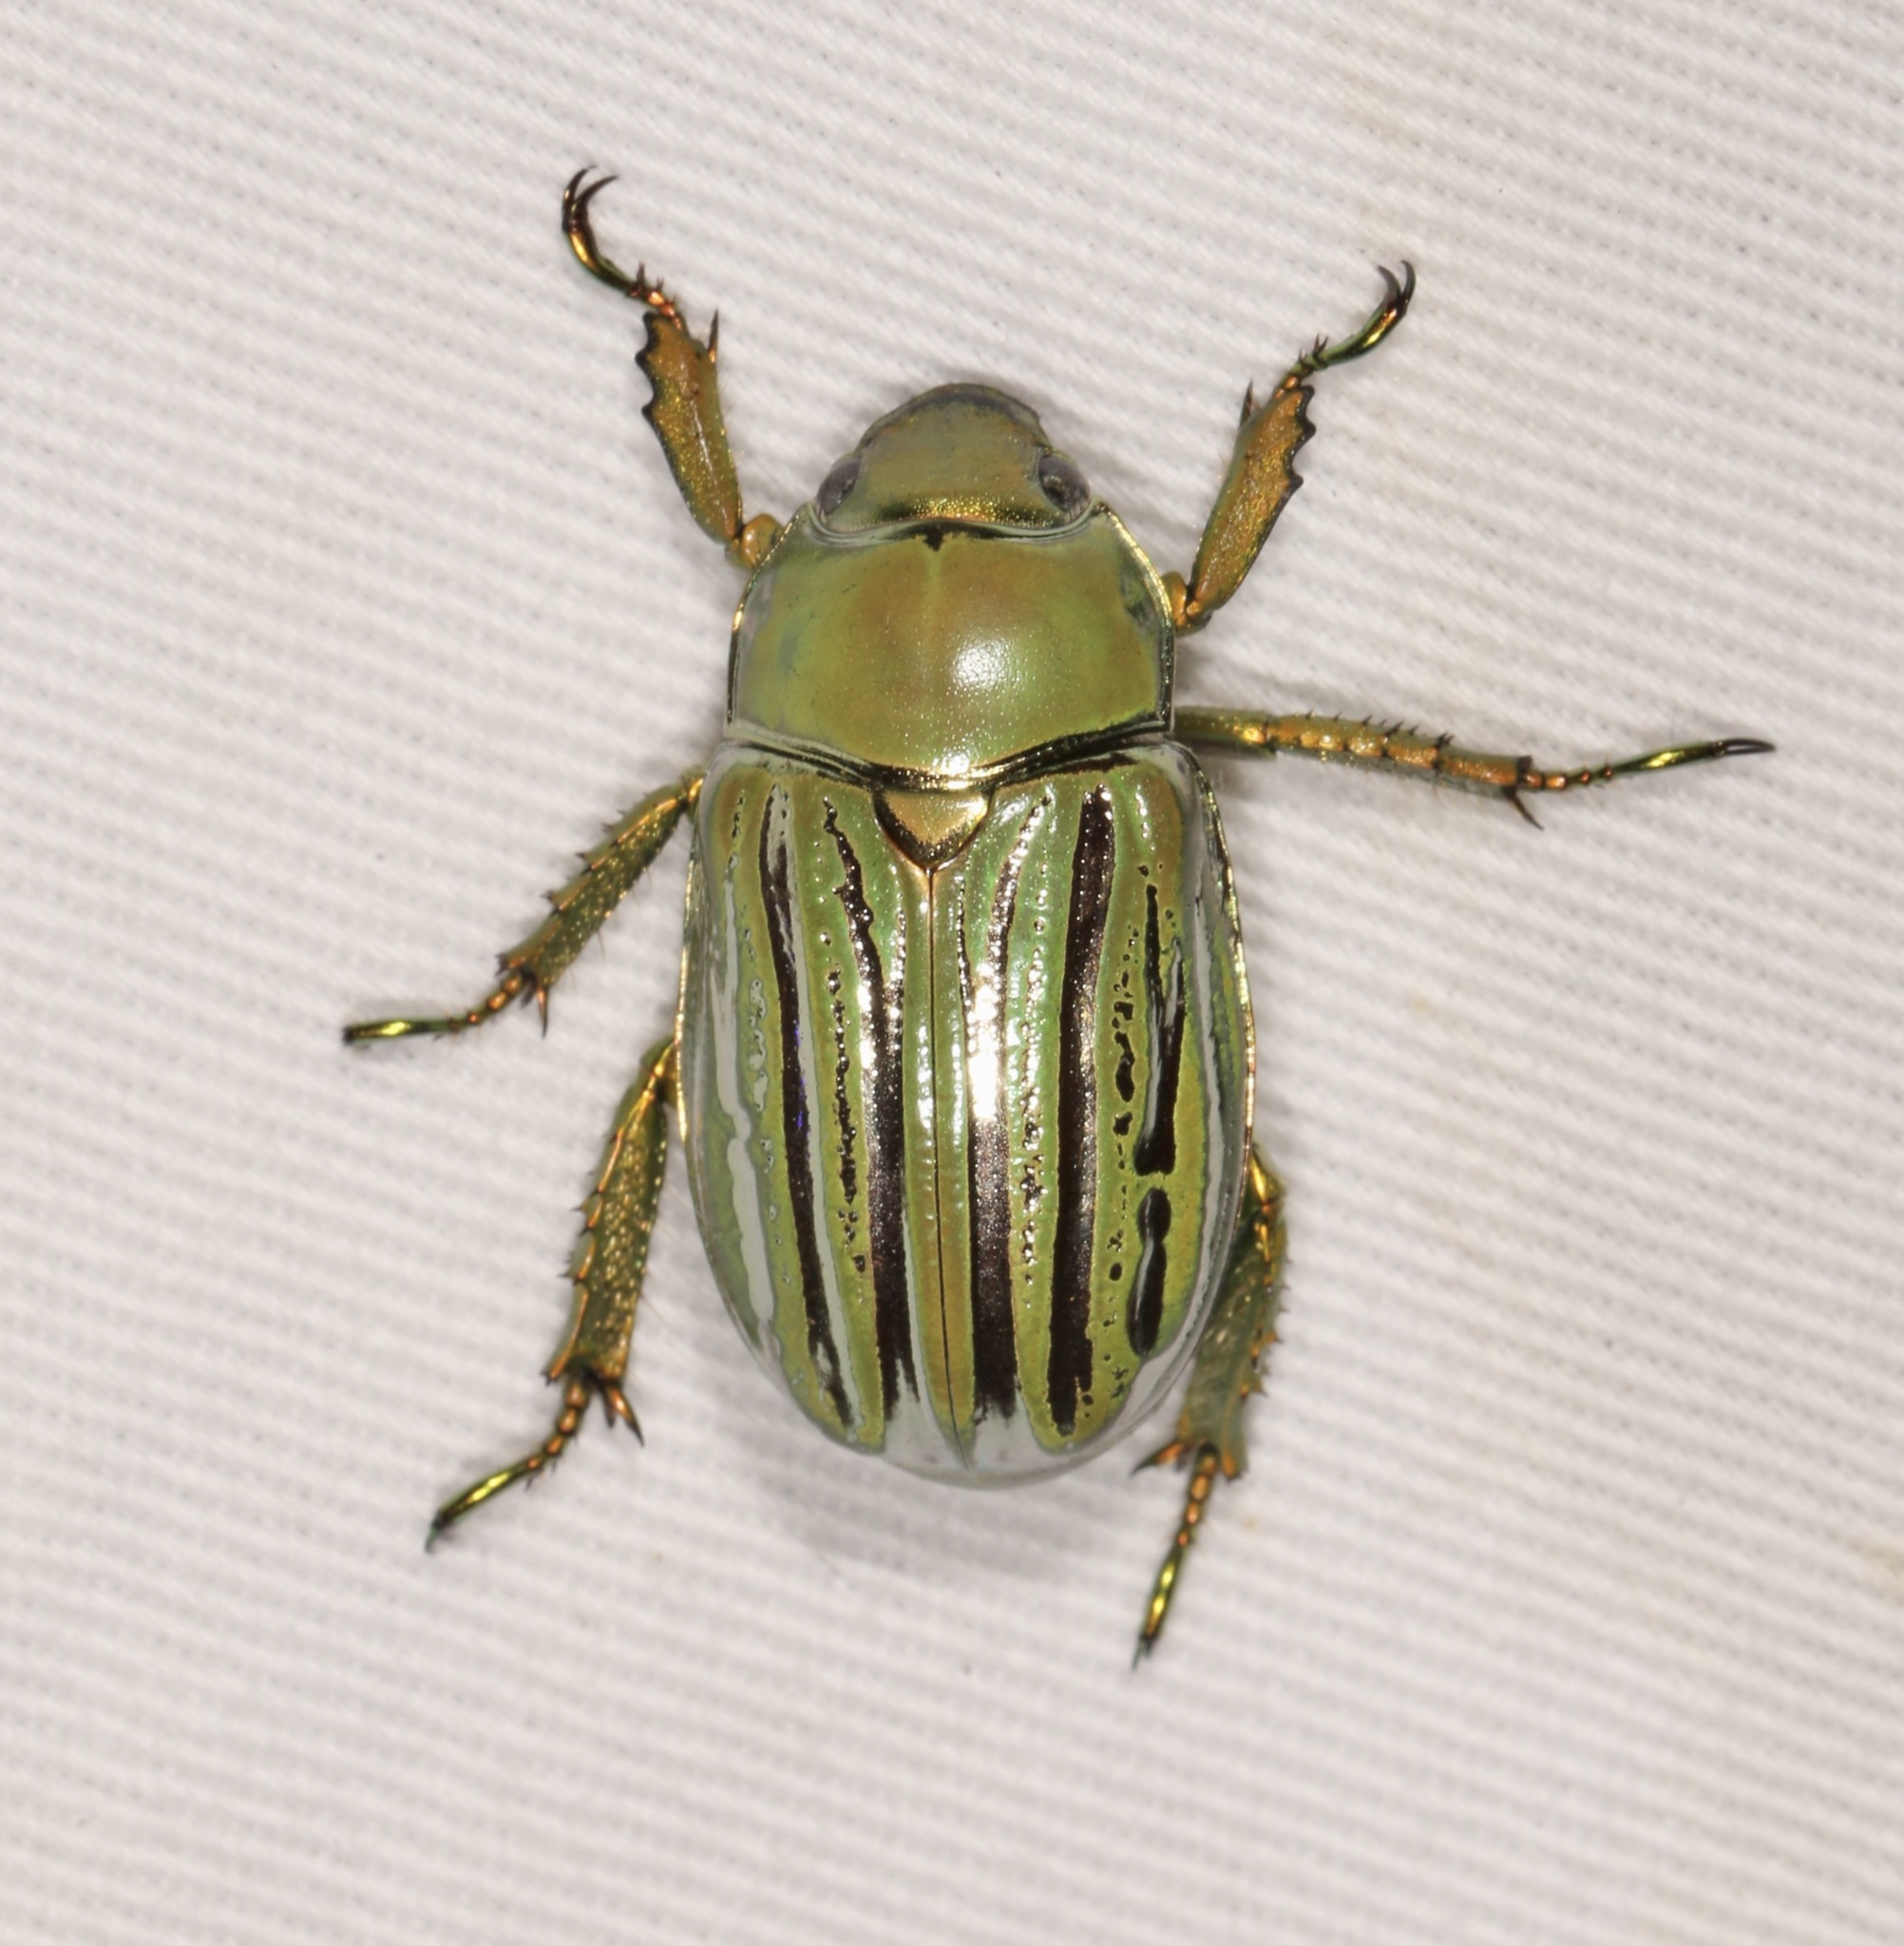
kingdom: Animalia
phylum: Arthropoda
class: Insecta
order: Coleoptera
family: Scarabaeidae
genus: Chrysina
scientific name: Chrysina gloriosa
